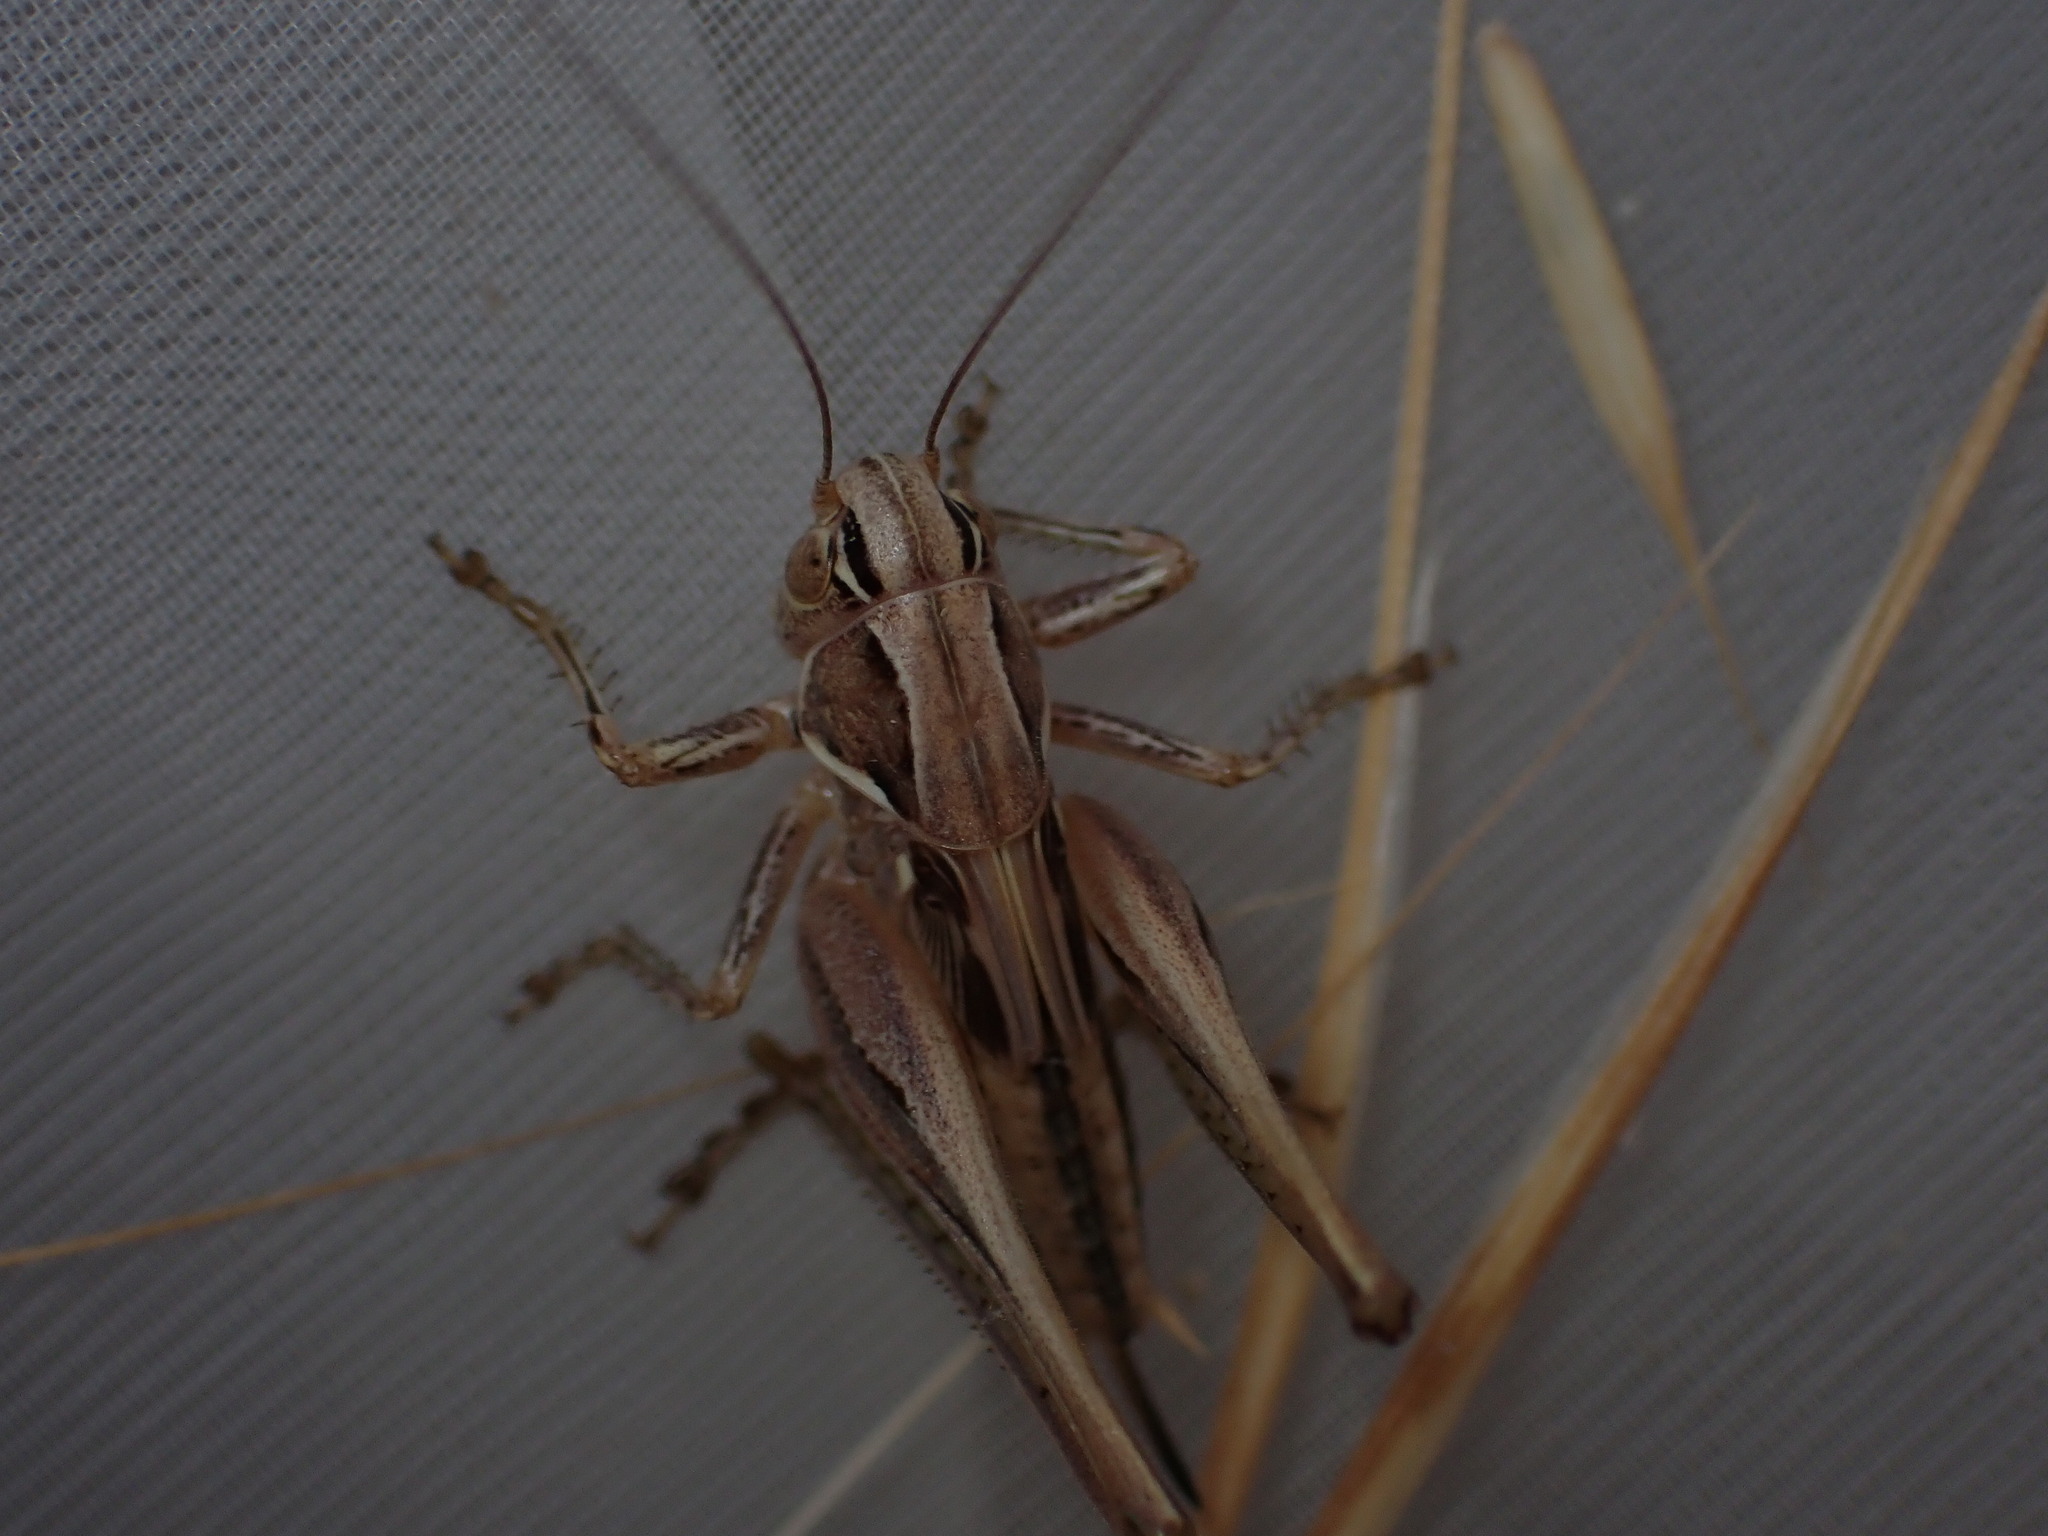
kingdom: Animalia
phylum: Arthropoda
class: Insecta
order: Orthoptera
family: Tettigoniidae
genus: Tessellana
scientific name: Tessellana tessellata
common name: Grasshopper
